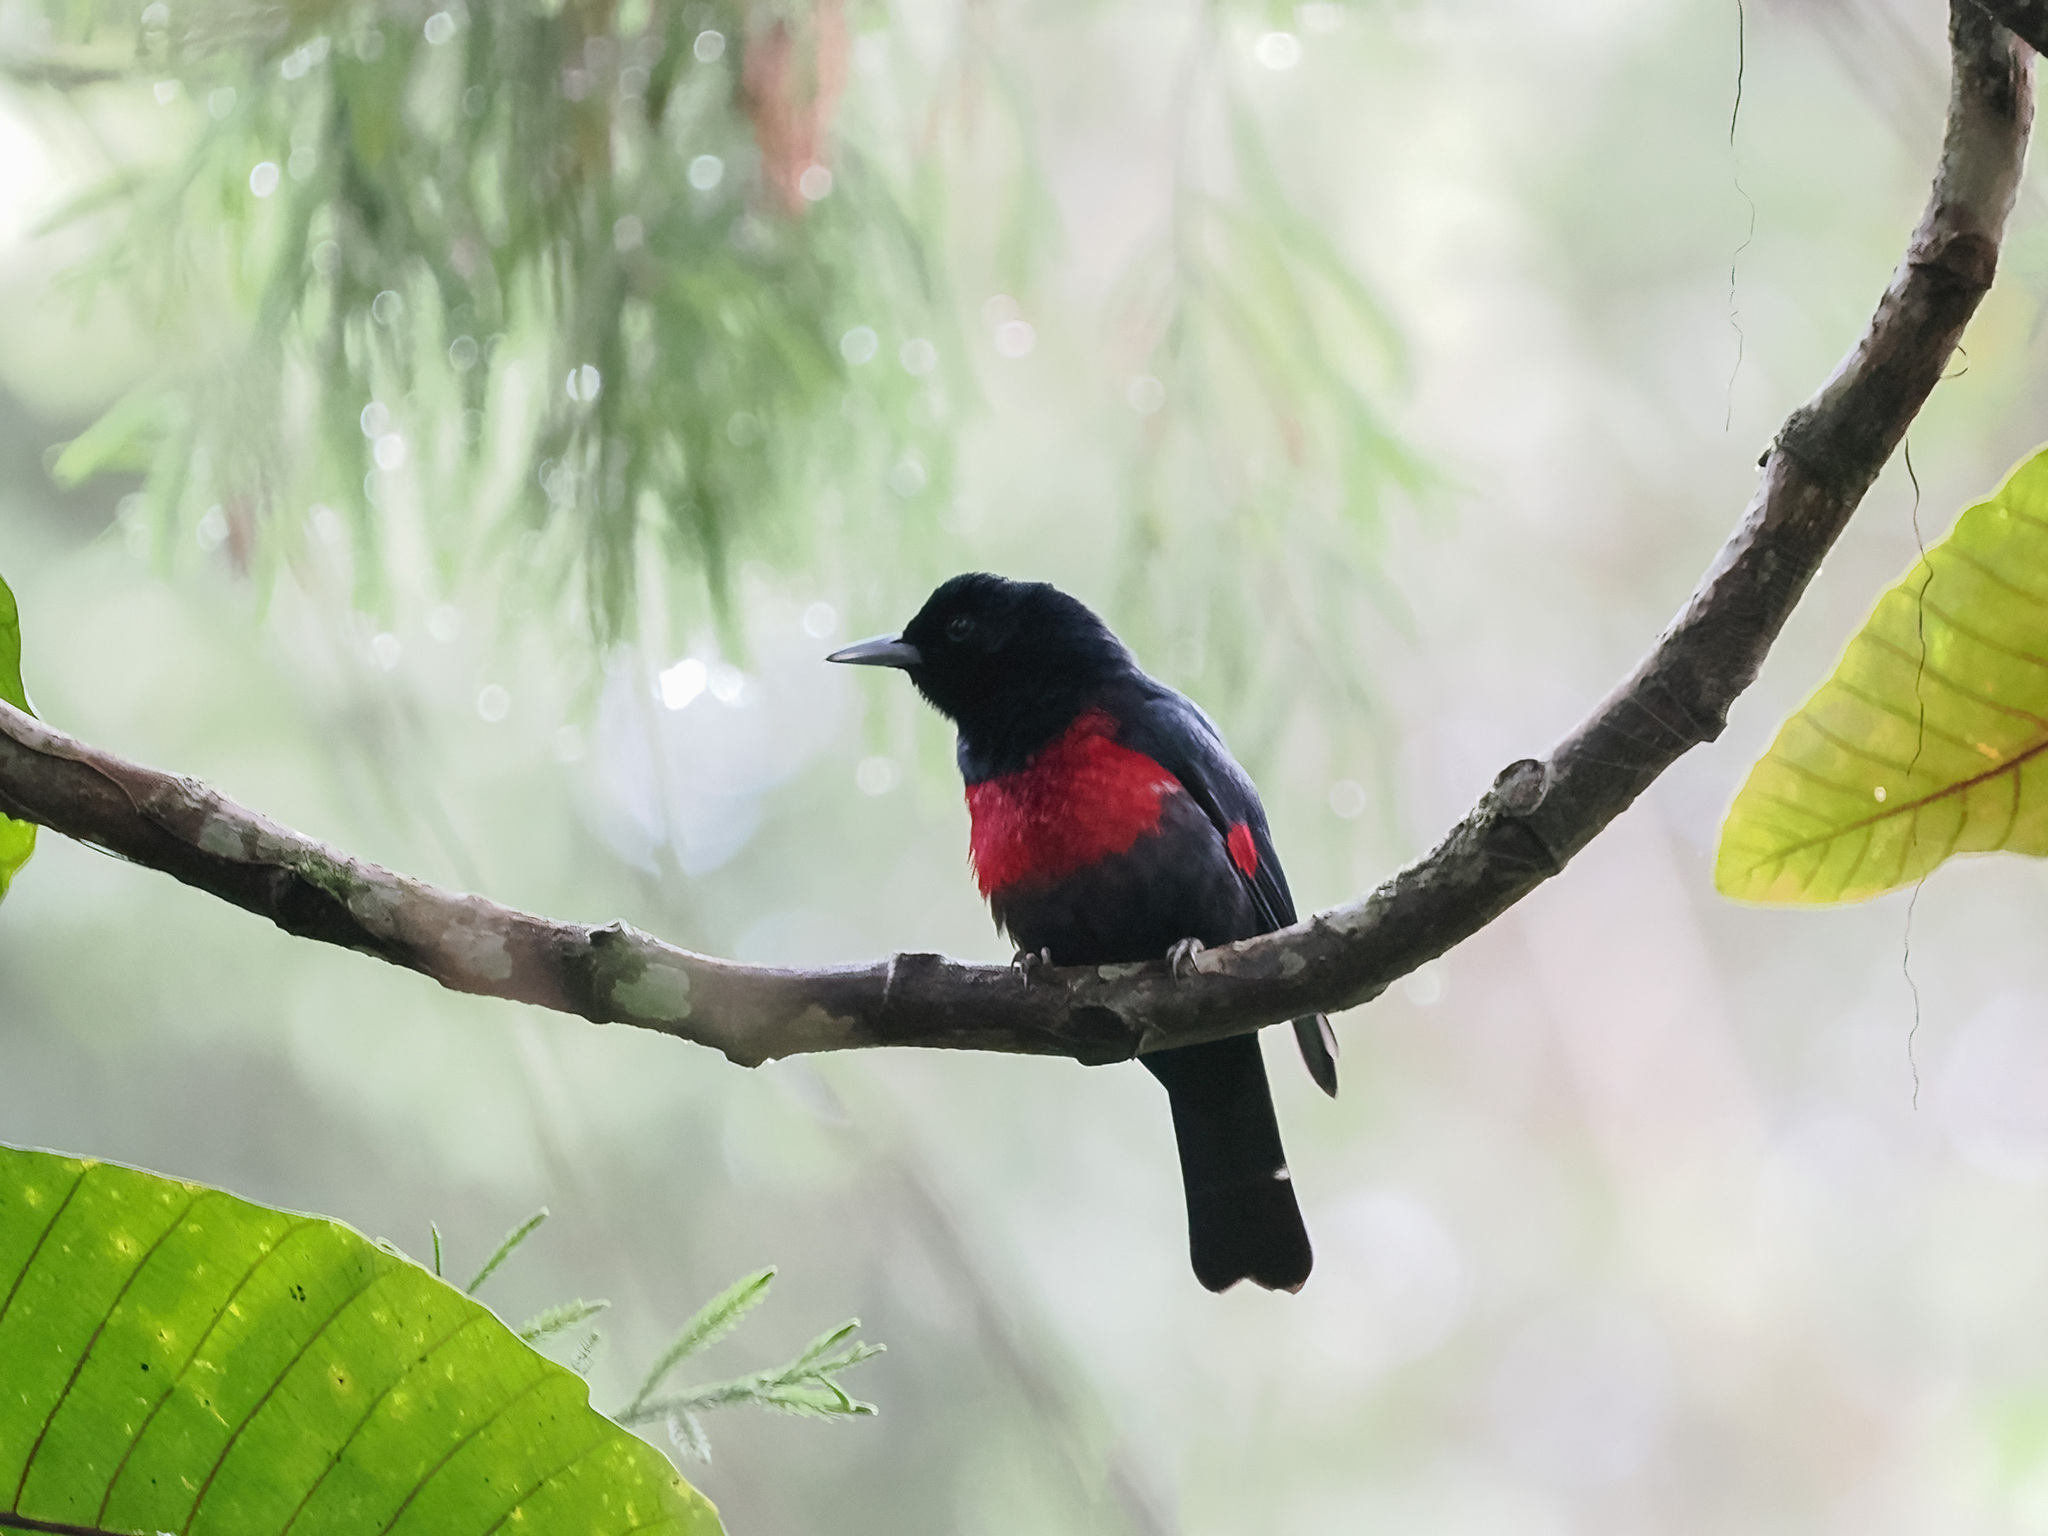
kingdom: Animalia
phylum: Chordata
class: Aves
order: Passeriformes
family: Oriolidae
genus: Oriolus
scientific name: Oriolus cruentus
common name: Black-and-crimson oriole
